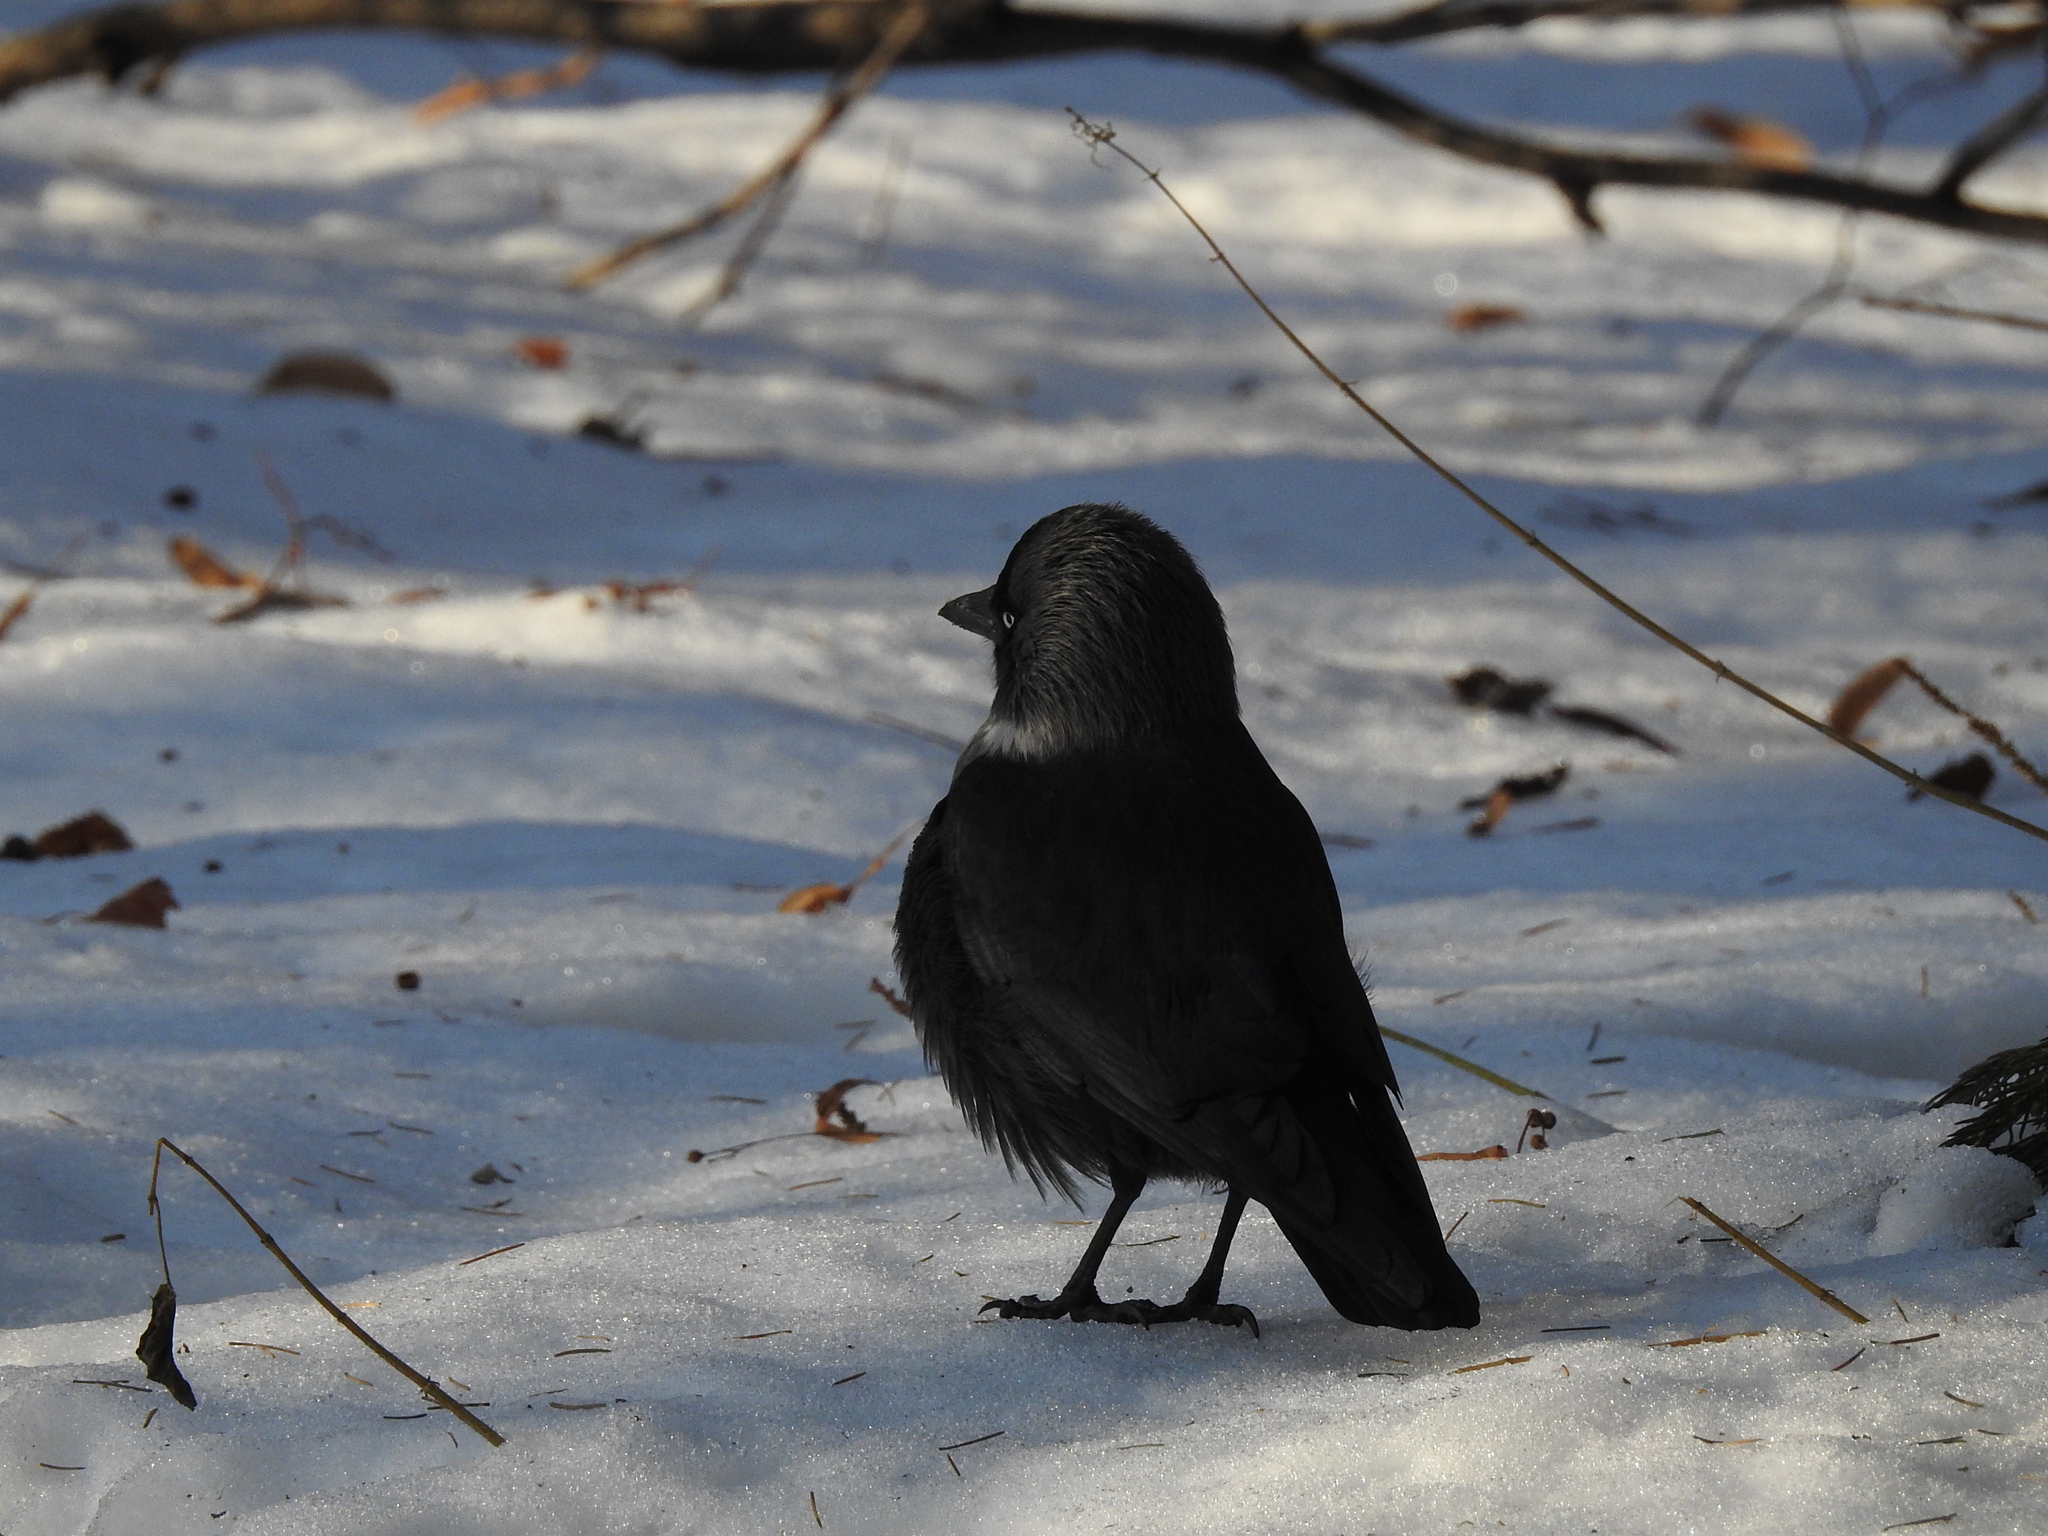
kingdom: Animalia
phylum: Chordata
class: Aves
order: Passeriformes
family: Corvidae
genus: Coloeus
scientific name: Coloeus monedula
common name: Western jackdaw
